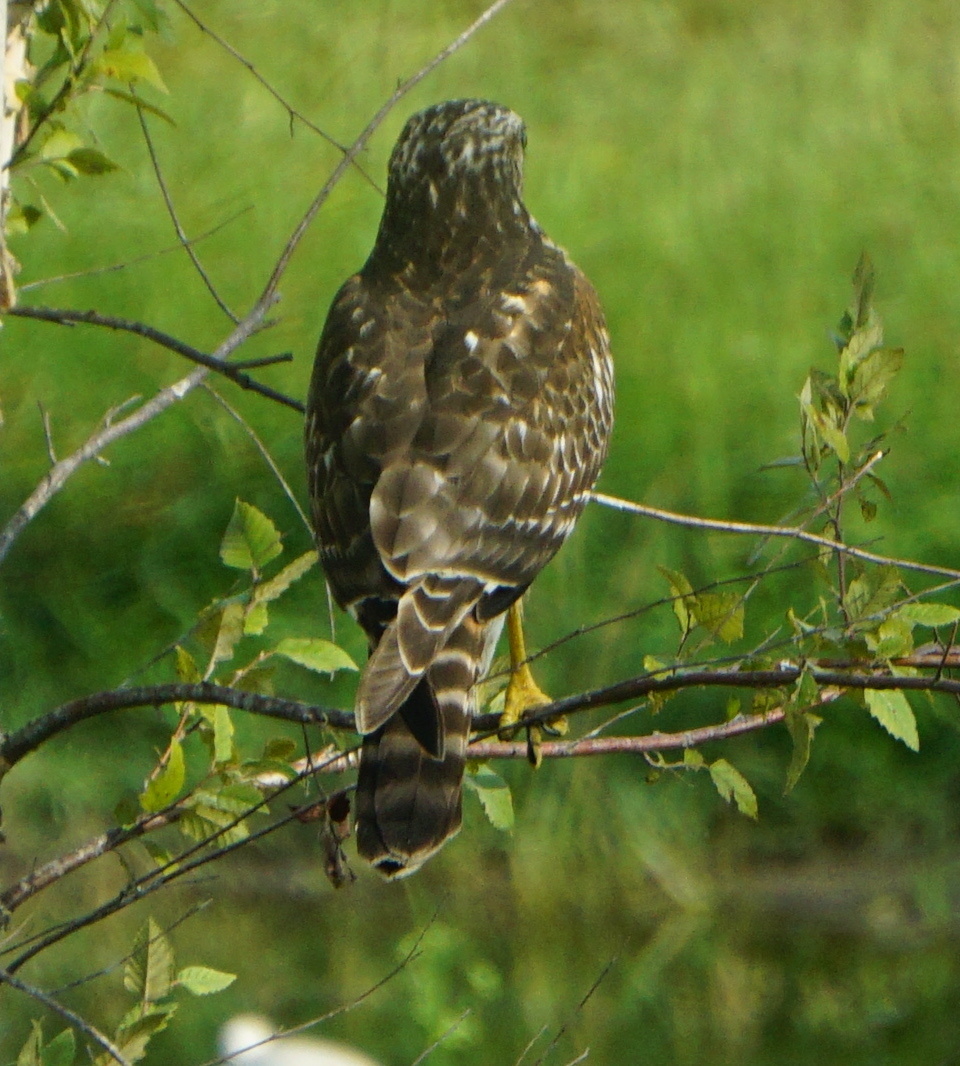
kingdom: Animalia
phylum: Chordata
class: Aves
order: Accipitriformes
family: Accipitridae
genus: Buteo
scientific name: Buteo lineatus
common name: Red-shouldered hawk
